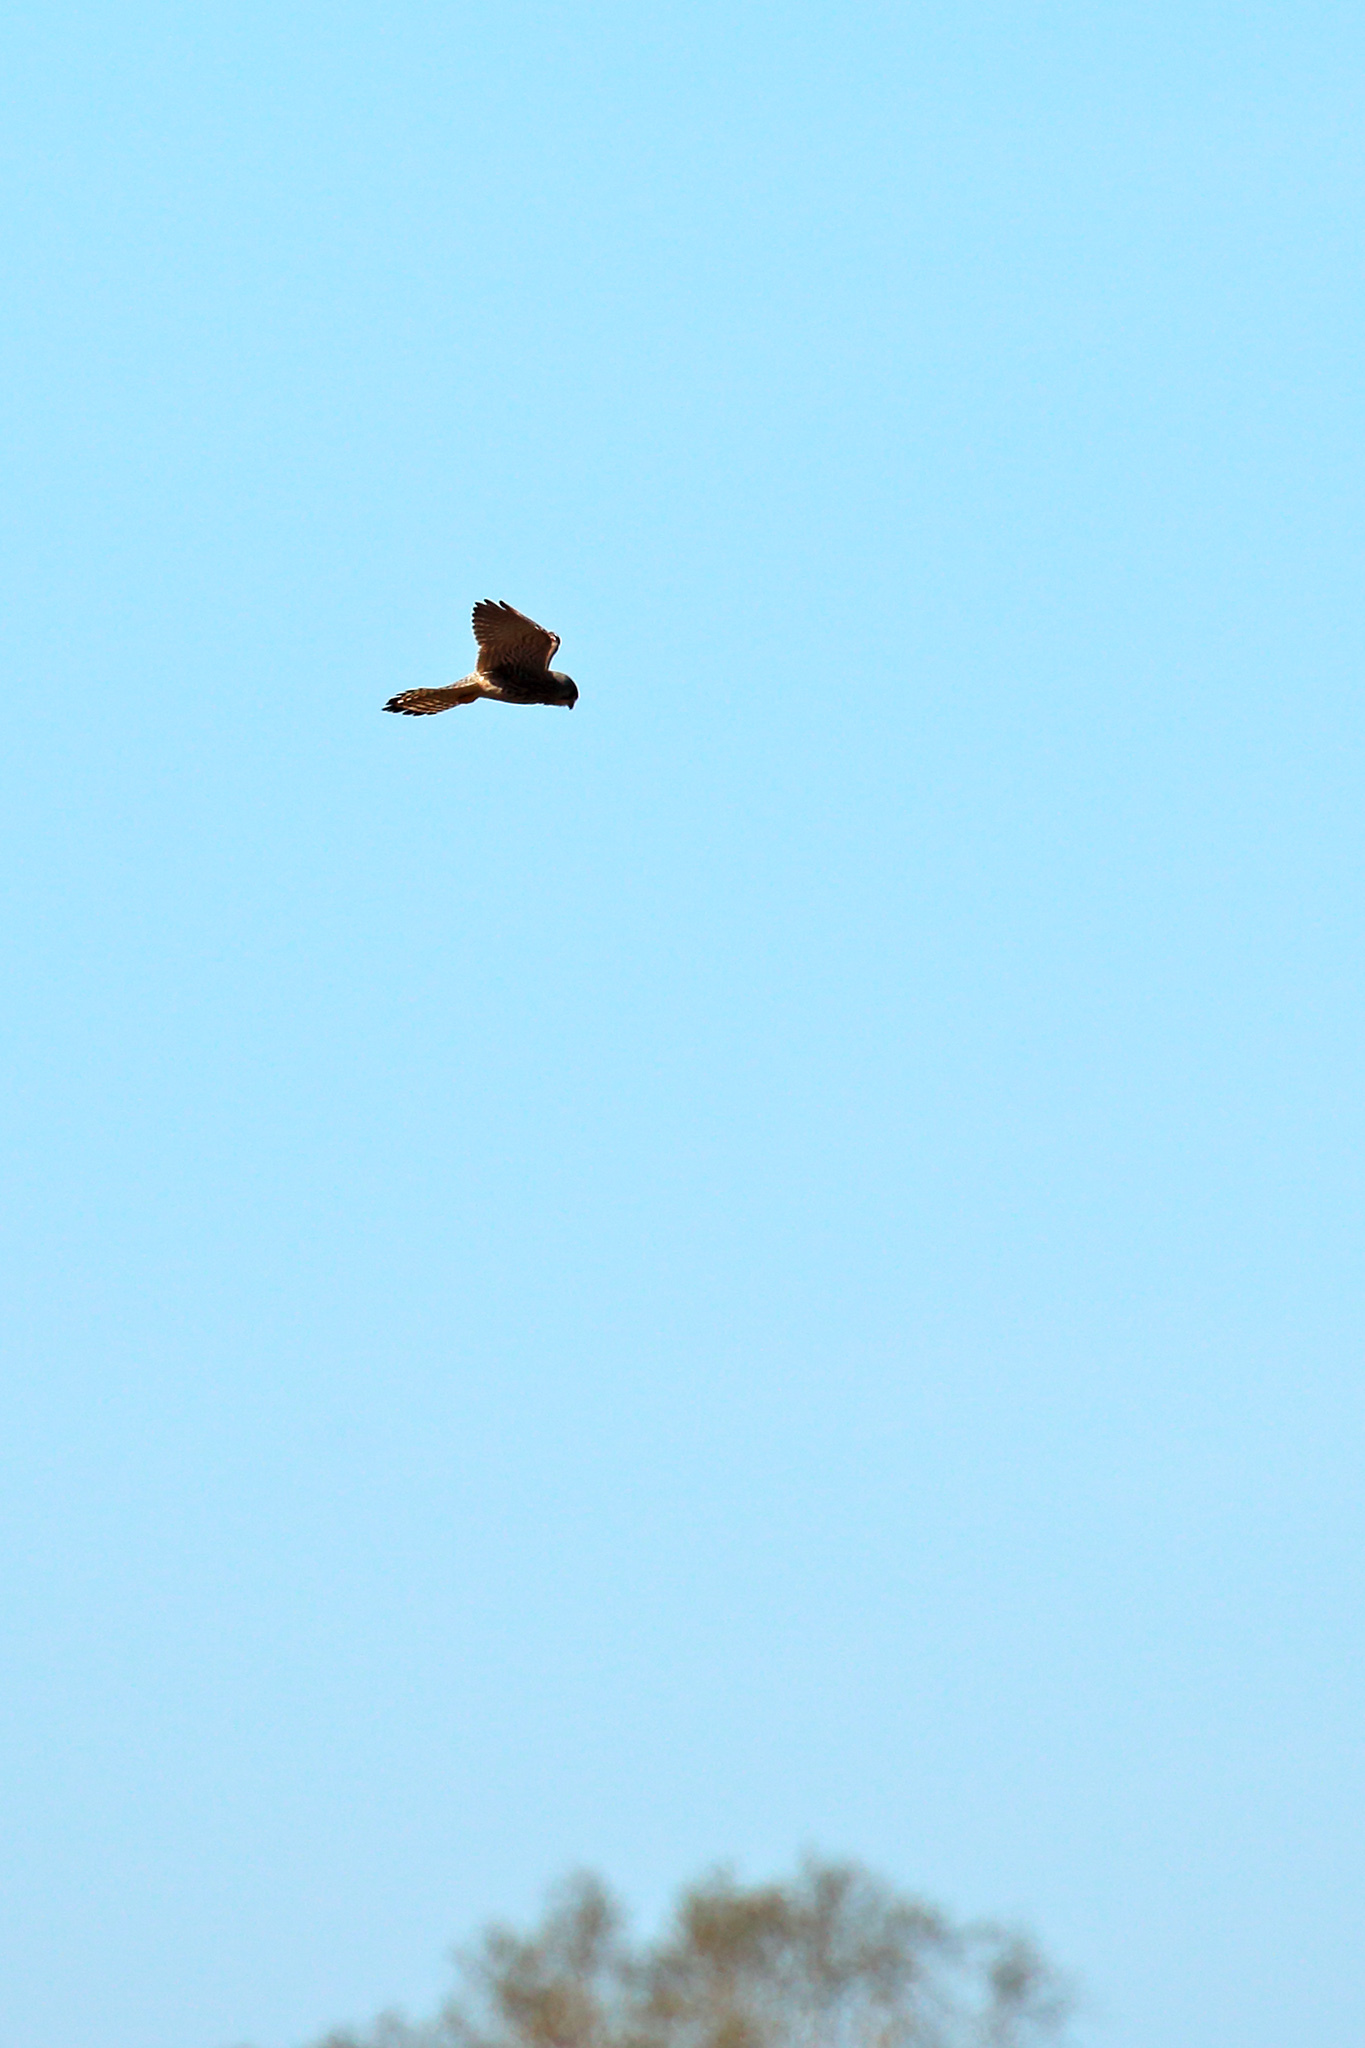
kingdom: Animalia
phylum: Chordata
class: Aves
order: Falconiformes
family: Falconidae
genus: Falco
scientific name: Falco tinnunculus
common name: Common kestrel
